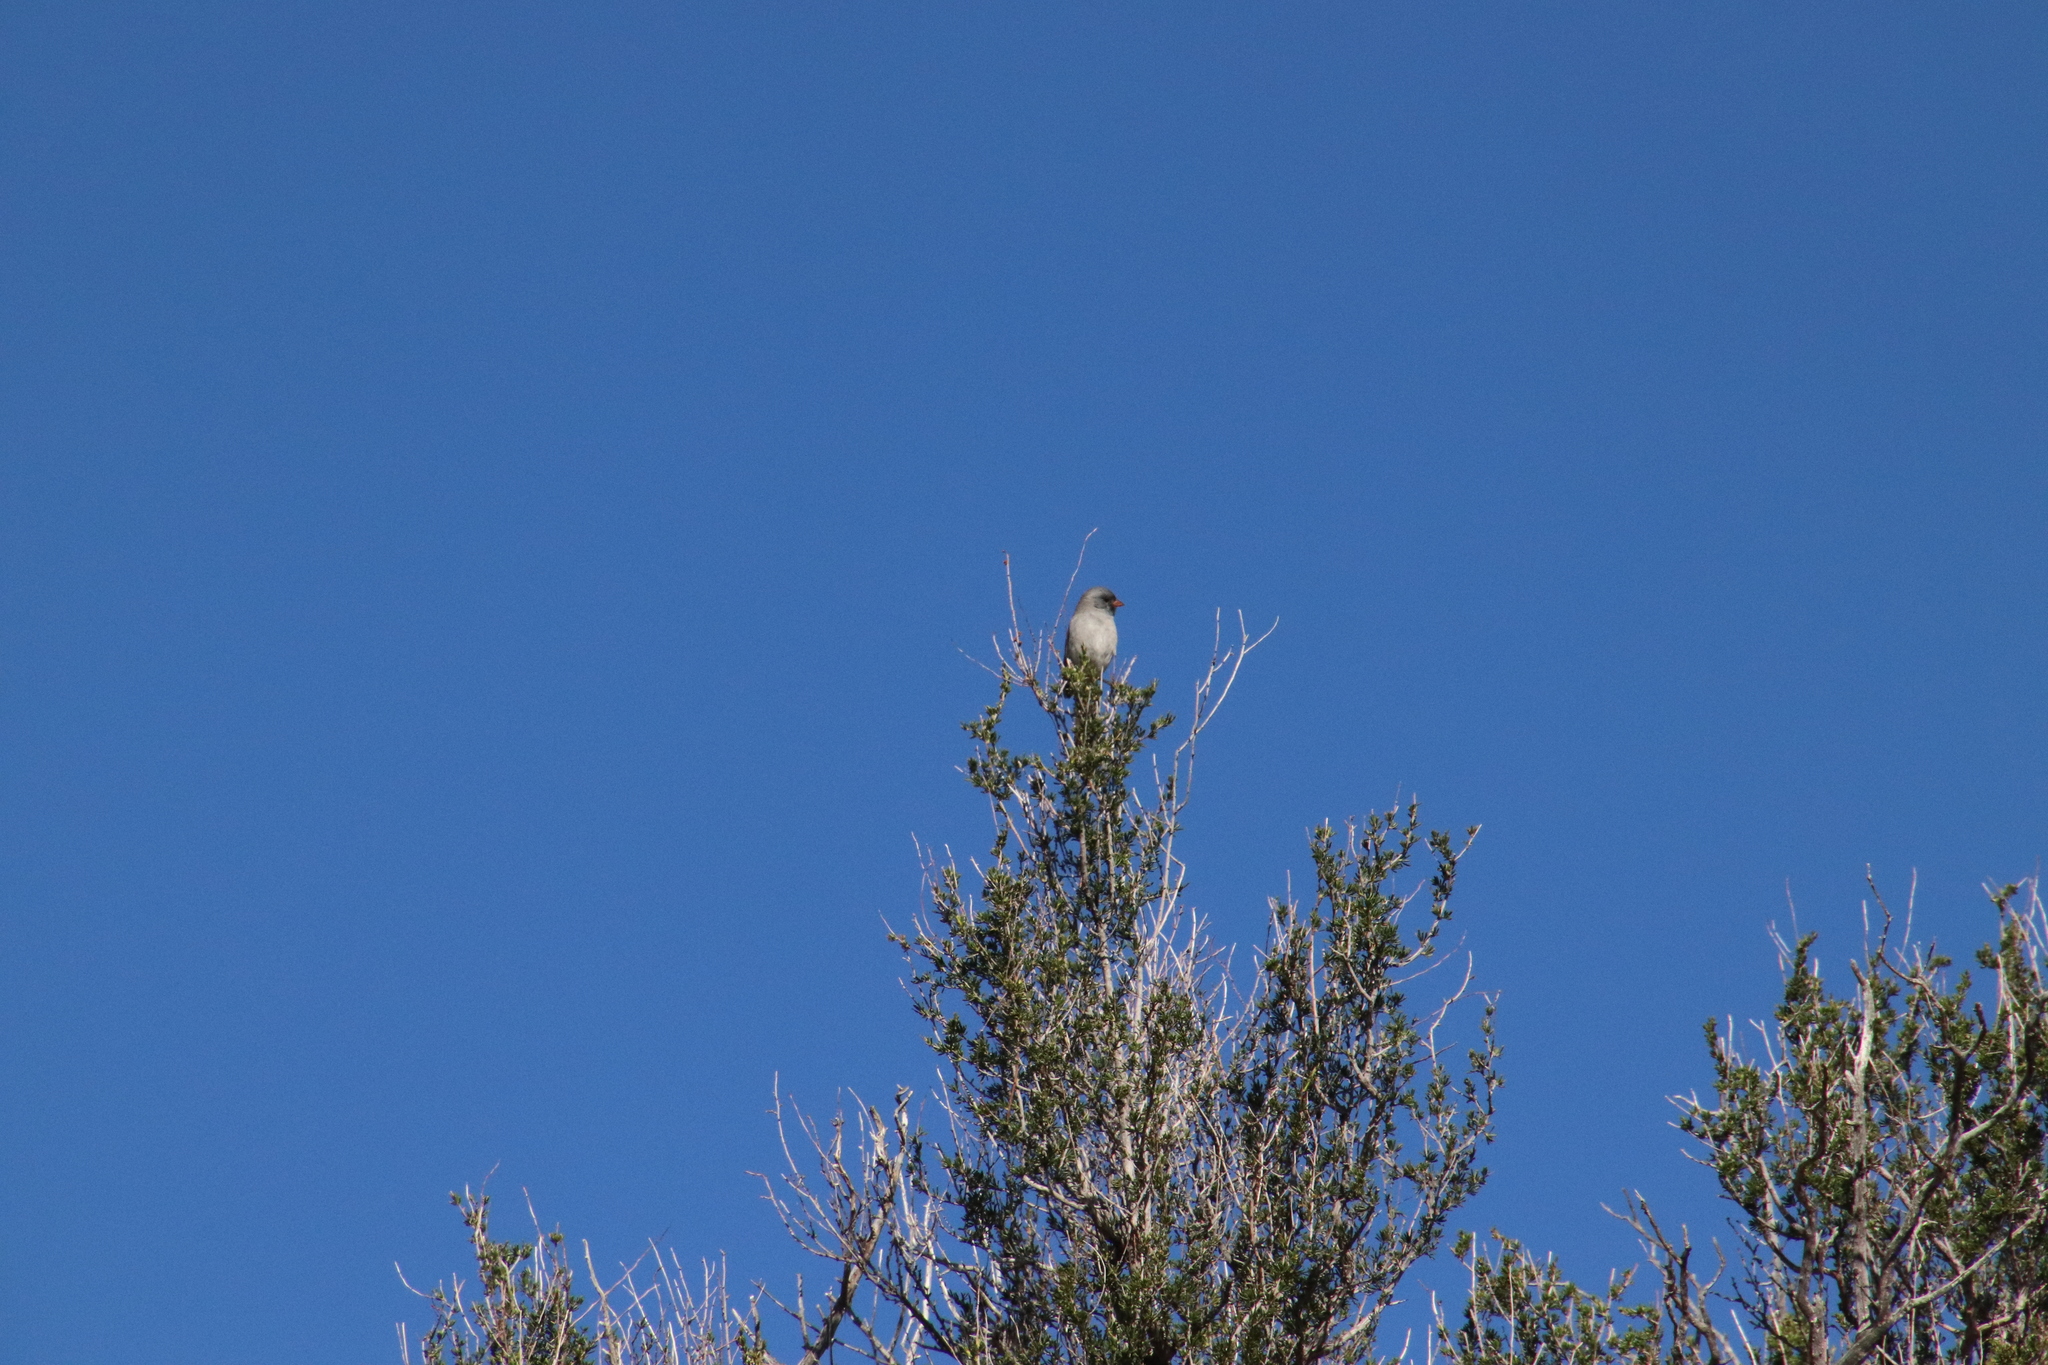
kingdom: Animalia
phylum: Chordata
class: Aves
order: Passeriformes
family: Passerellidae
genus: Spizella
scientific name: Spizella atrogularis
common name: Black-chinned sparrow
